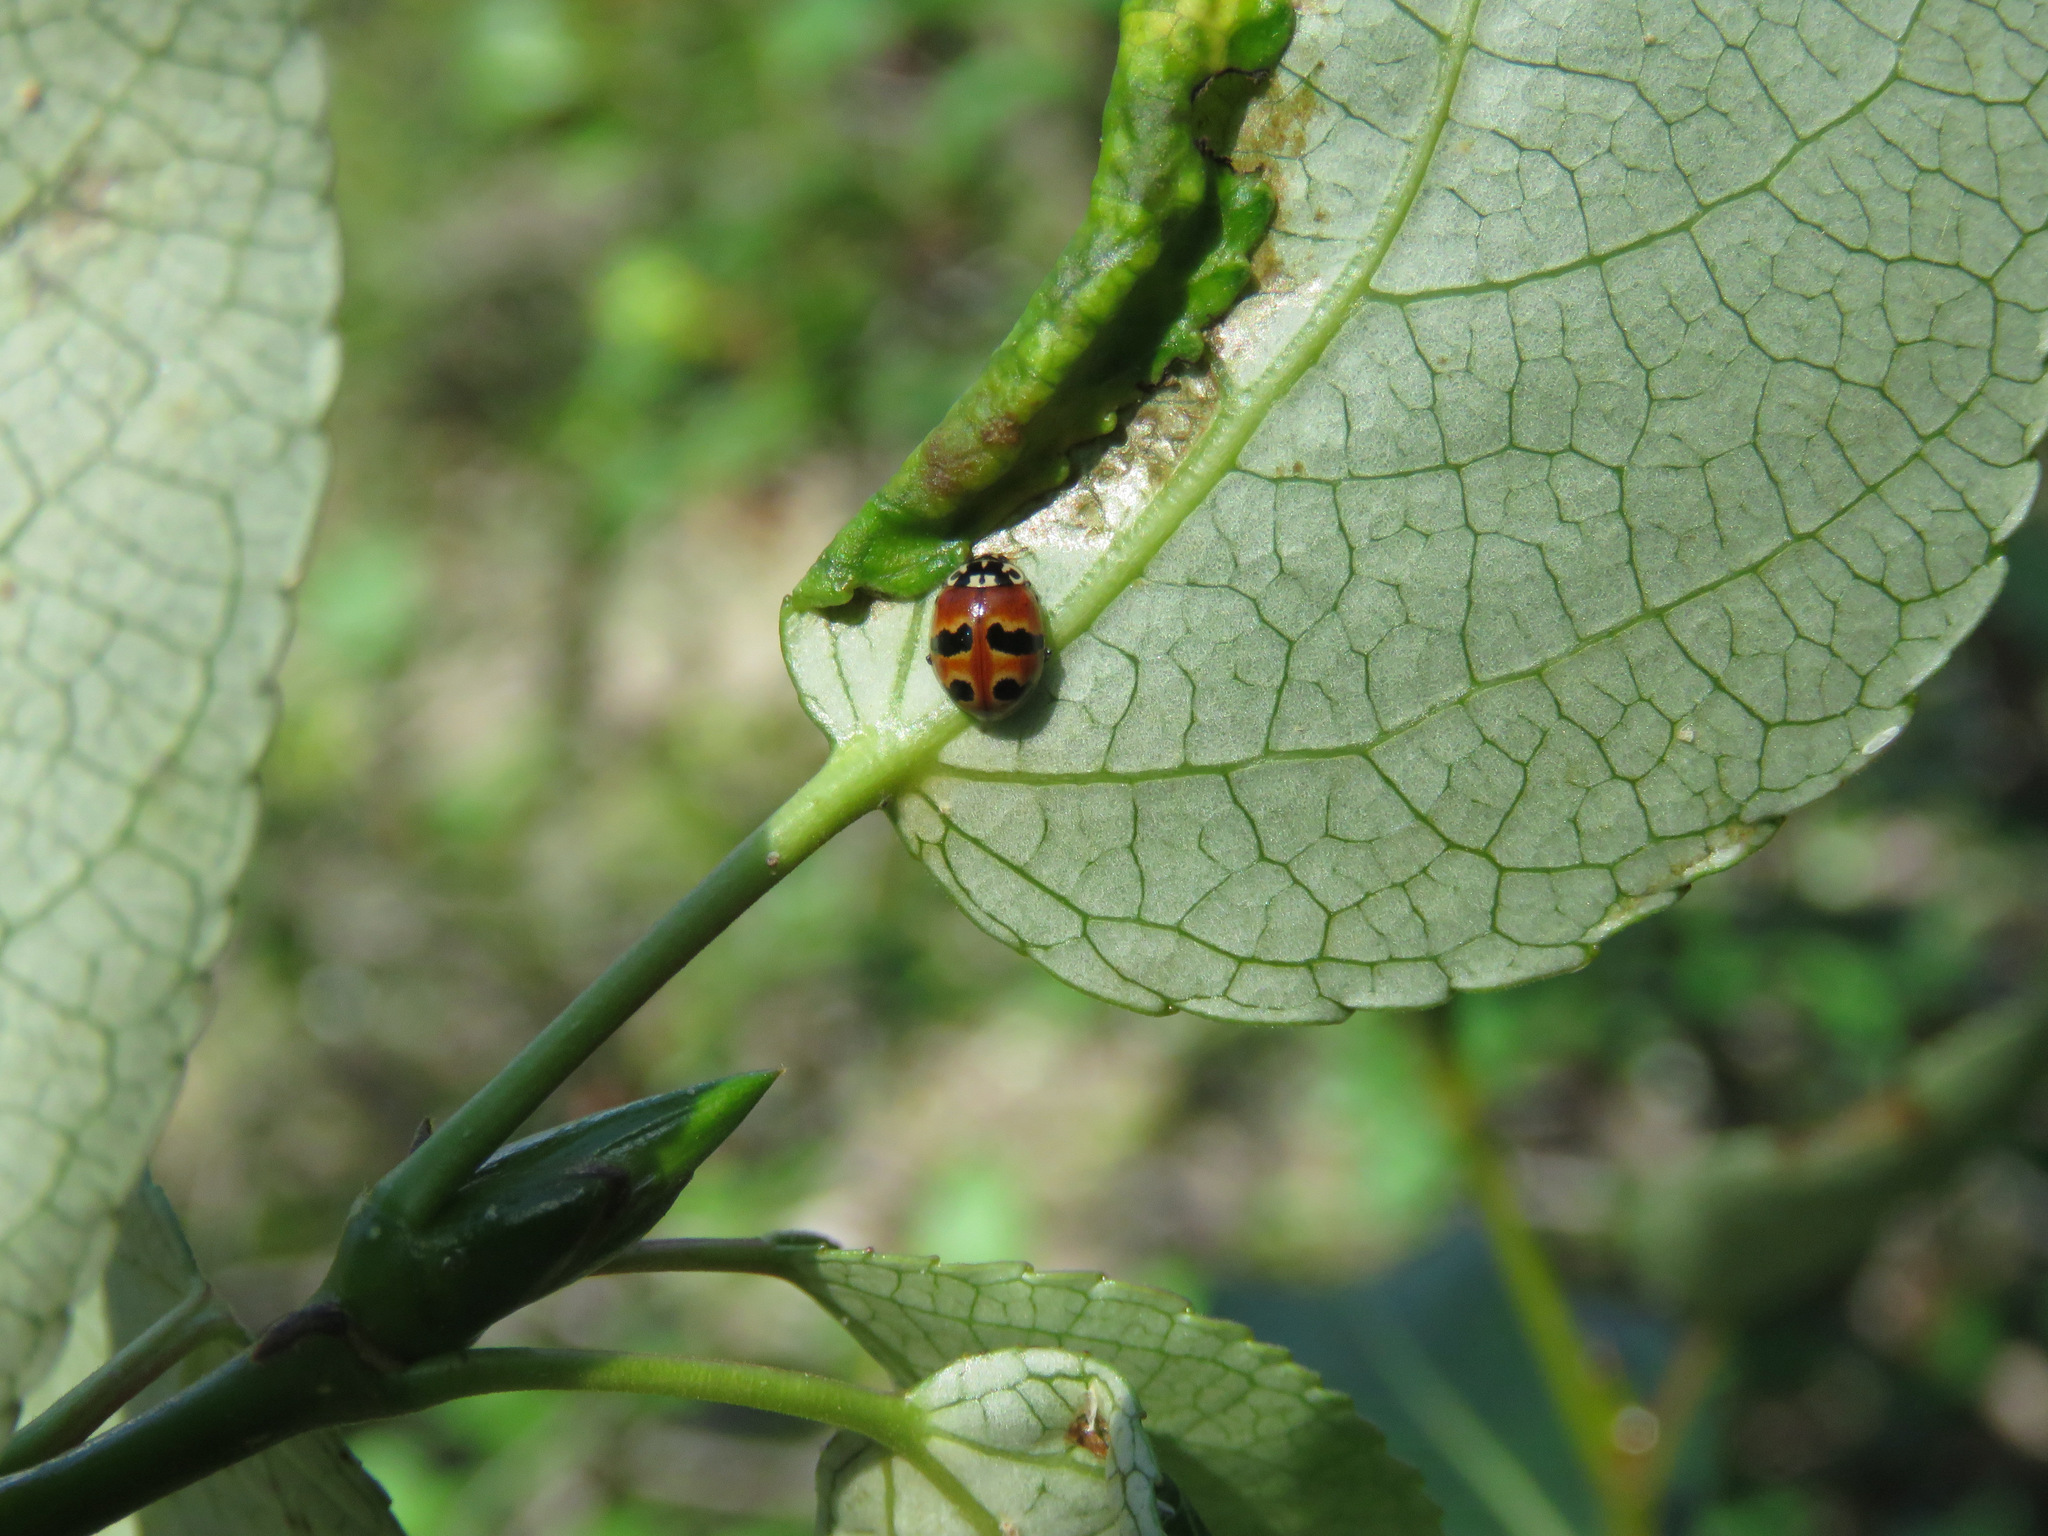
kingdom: Animalia
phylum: Arthropoda
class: Insecta
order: Coleoptera
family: Coccinellidae
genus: Adalia
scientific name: Adalia bipunctata
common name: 2-spot ladybird
